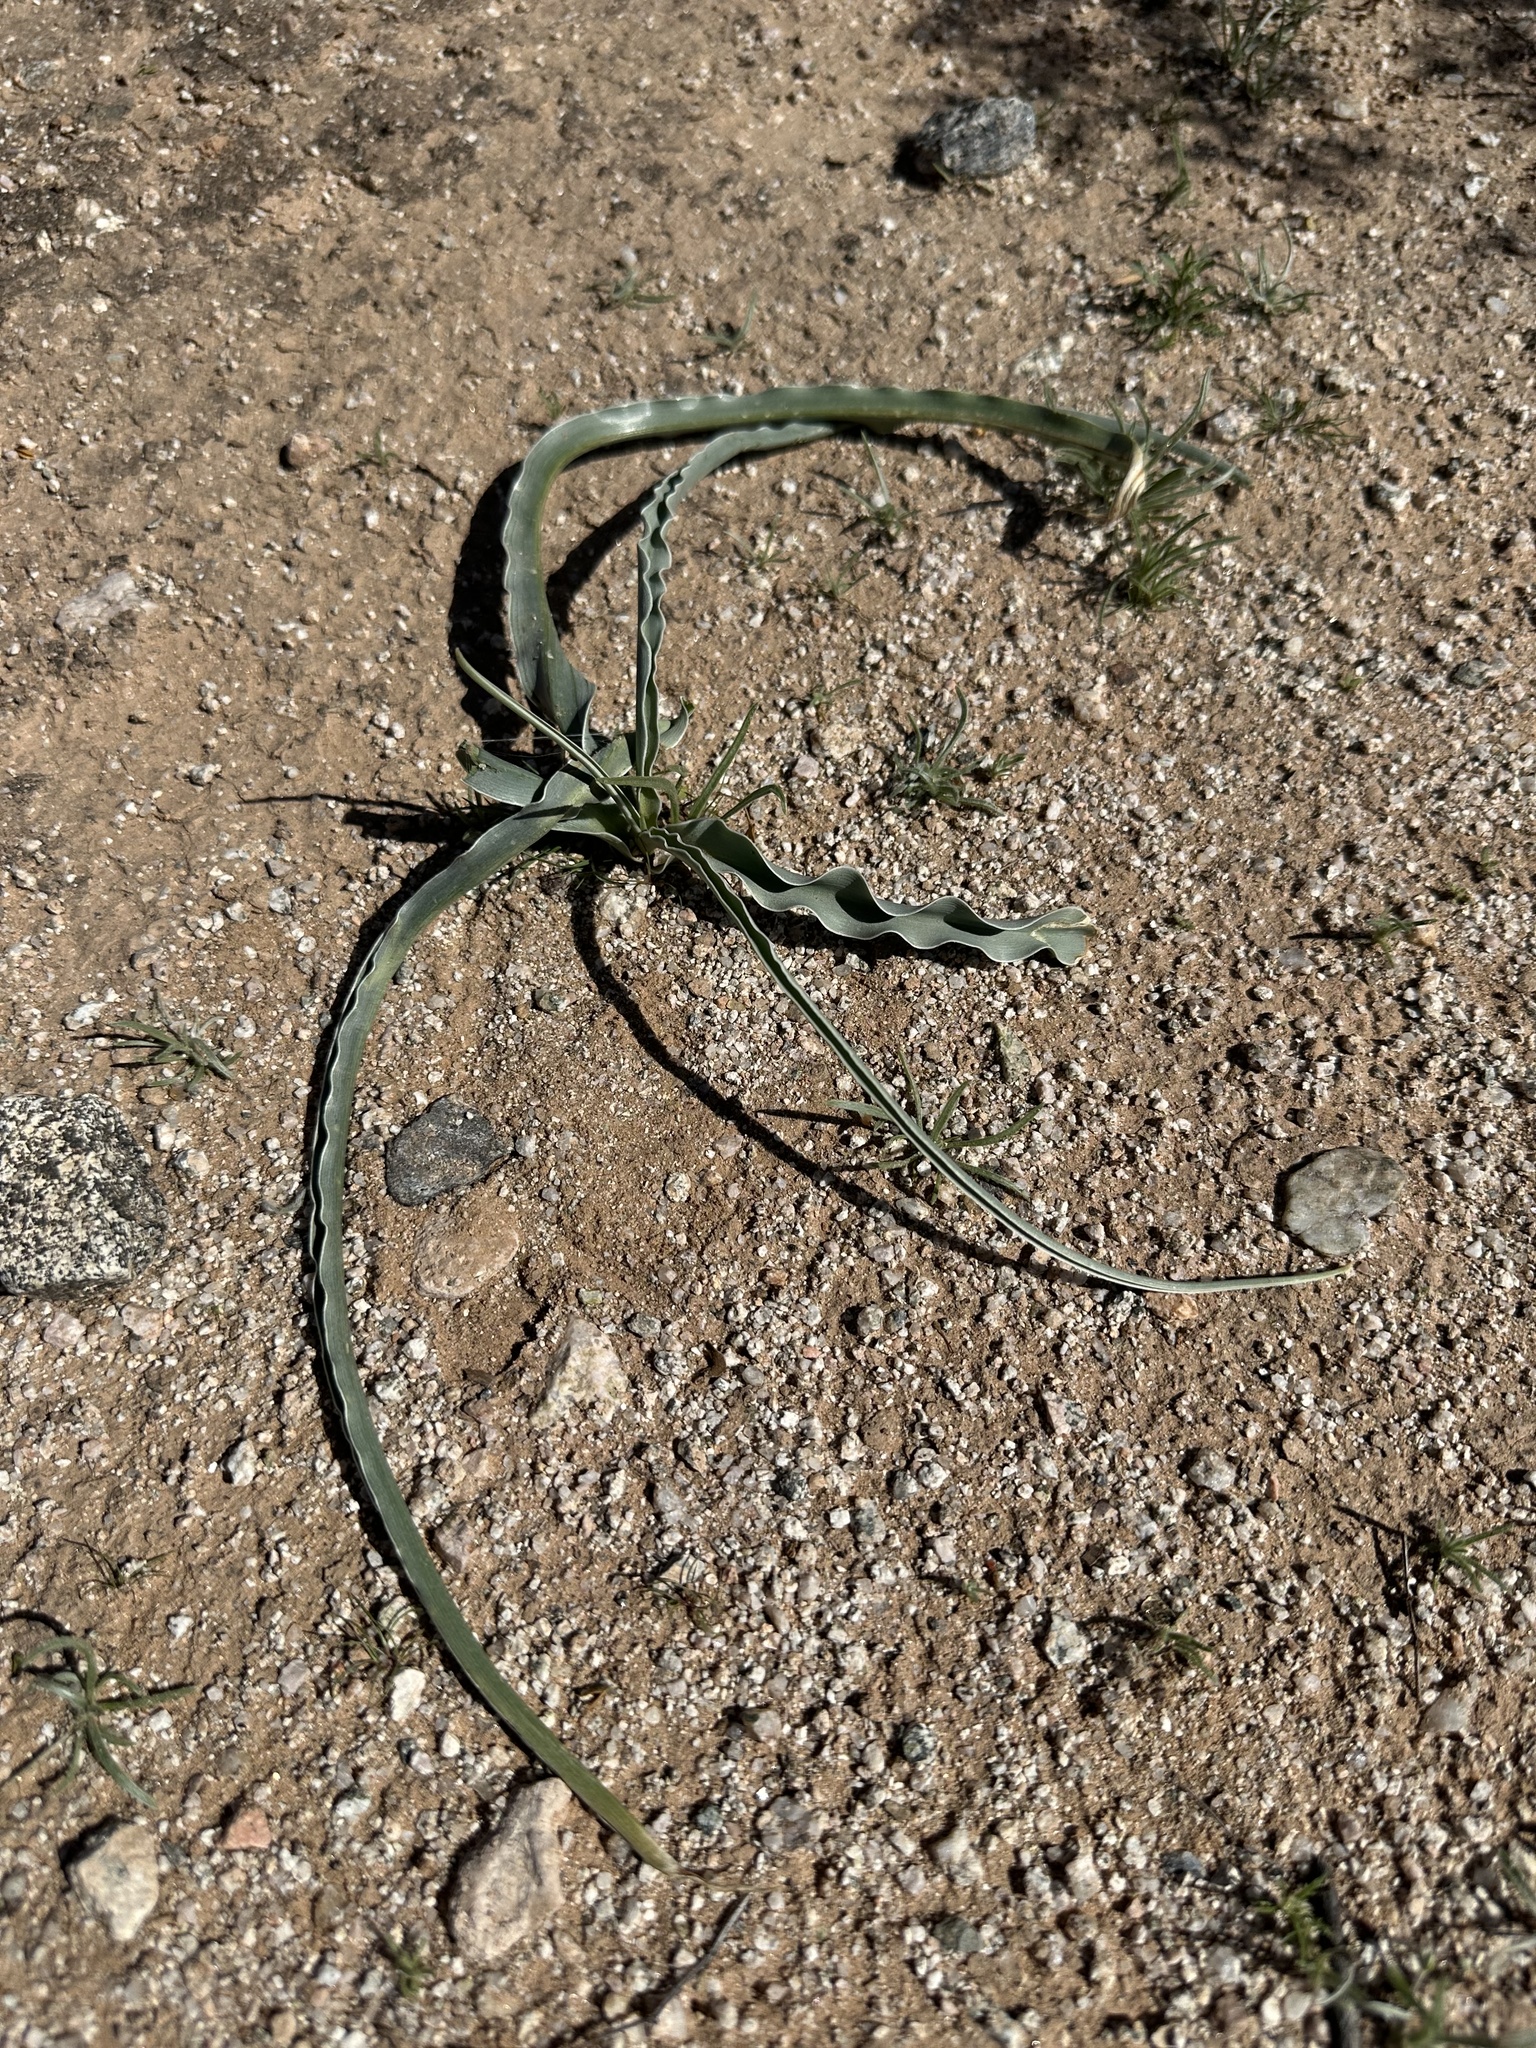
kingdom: Plantae
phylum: Tracheophyta
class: Liliopsida
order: Asparagales
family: Asparagaceae
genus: Hesperocallis
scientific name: Hesperocallis undulata
